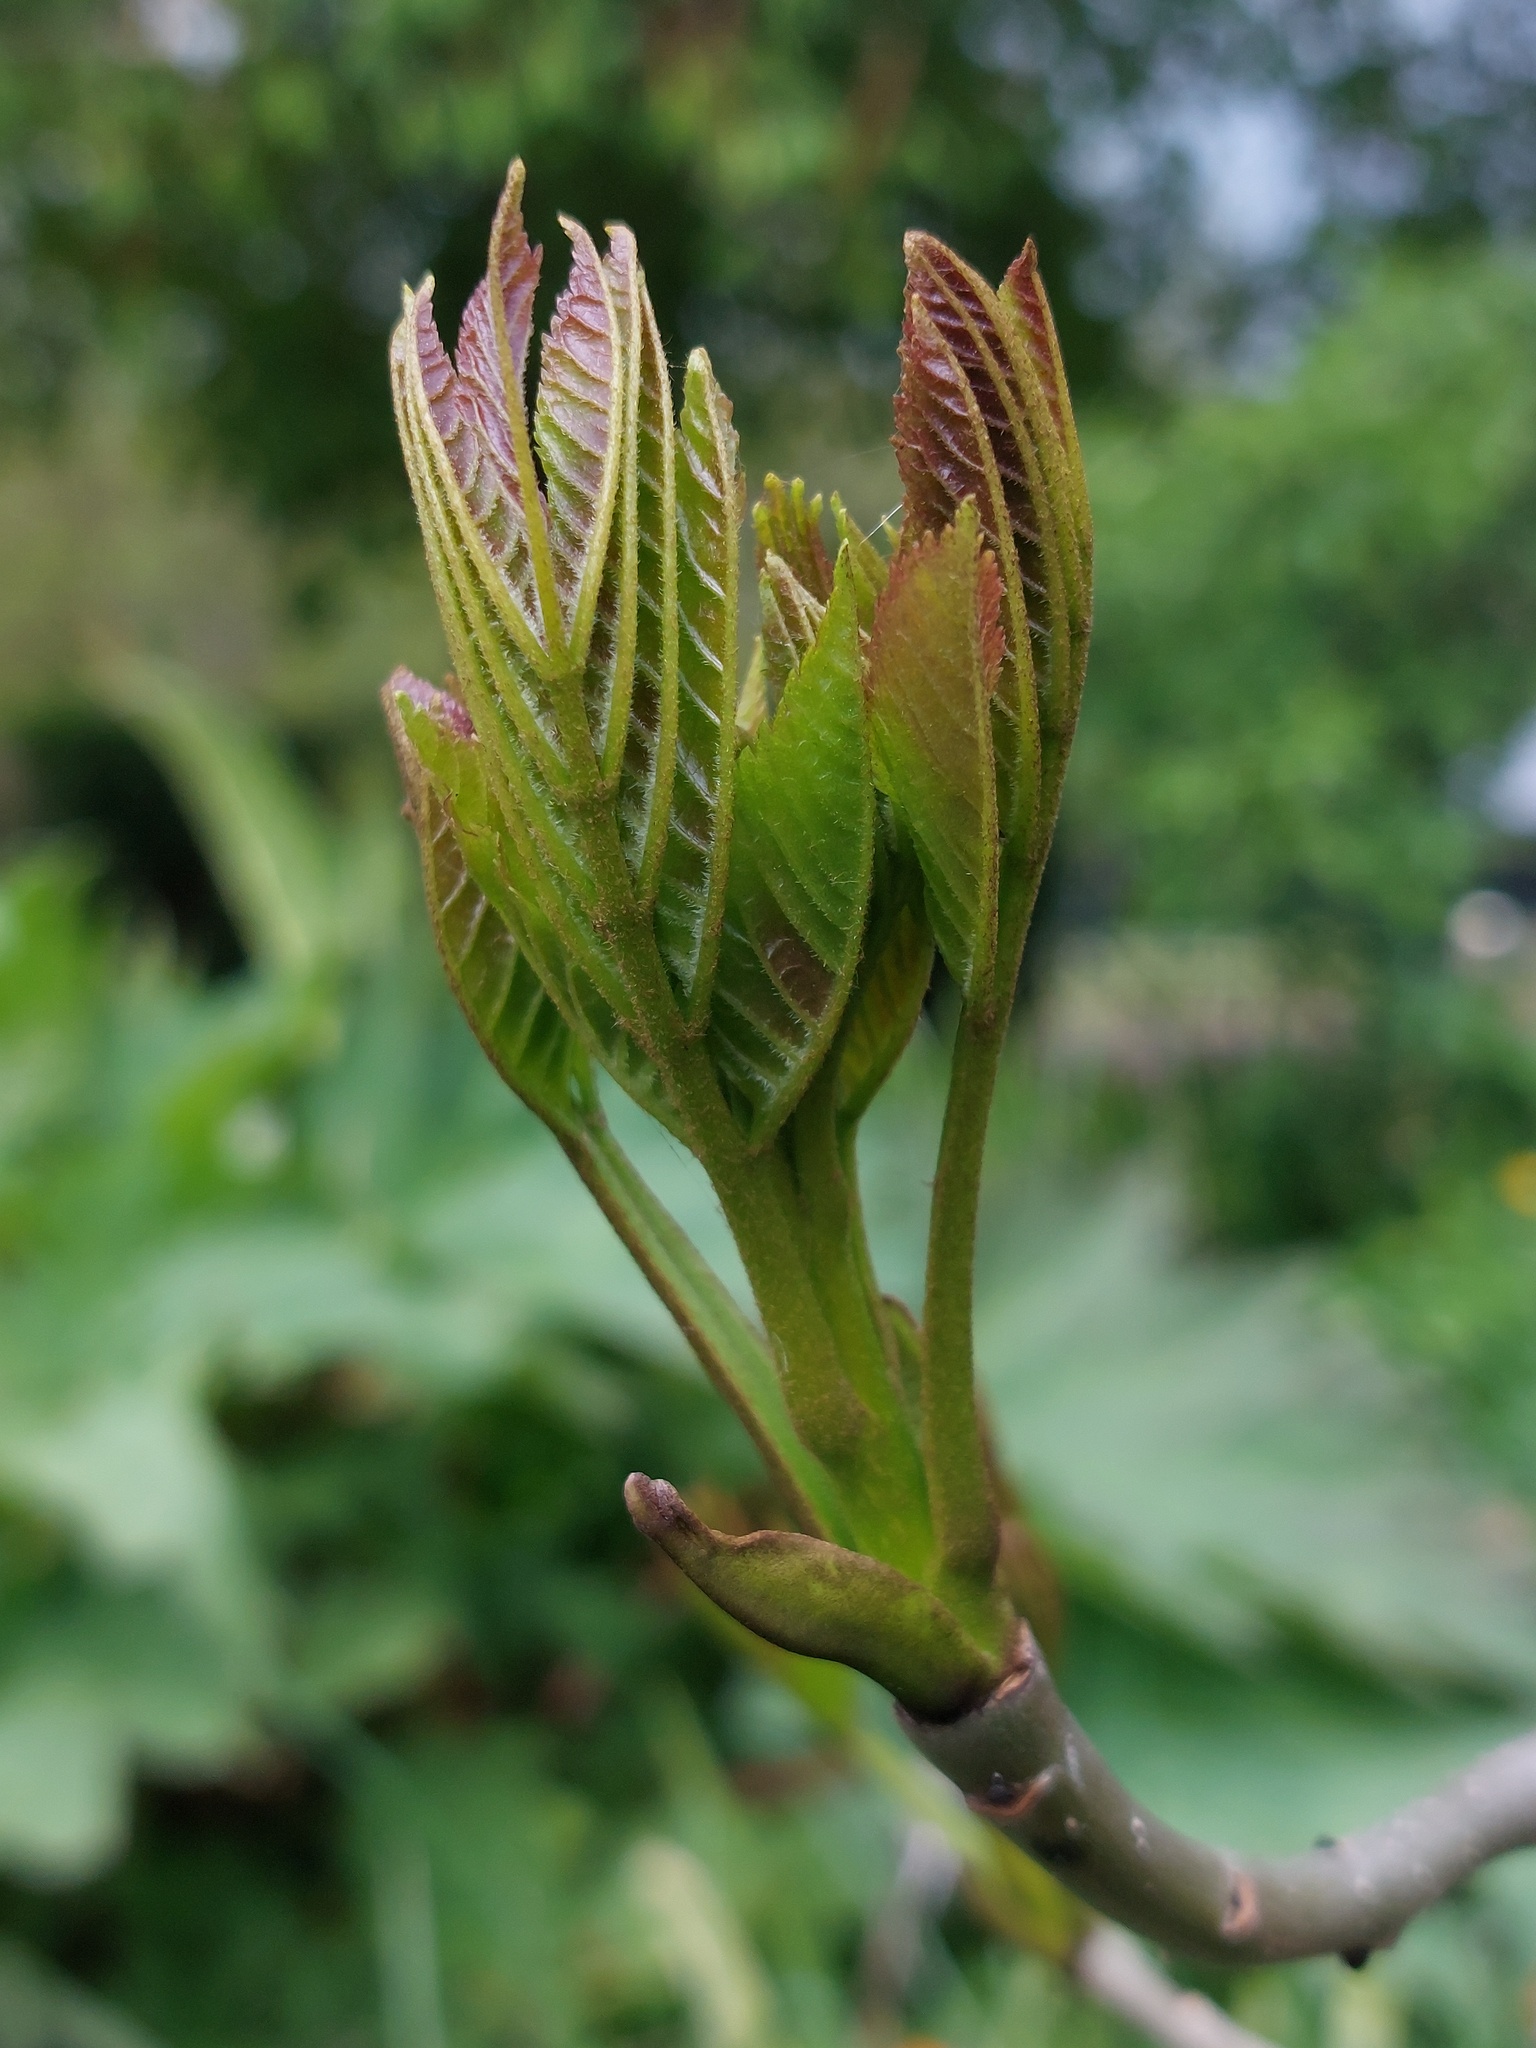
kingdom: Plantae
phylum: Tracheophyta
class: Magnoliopsida
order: Lamiales
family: Oleaceae
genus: Fraxinus
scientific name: Fraxinus excelsior
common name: European ash
